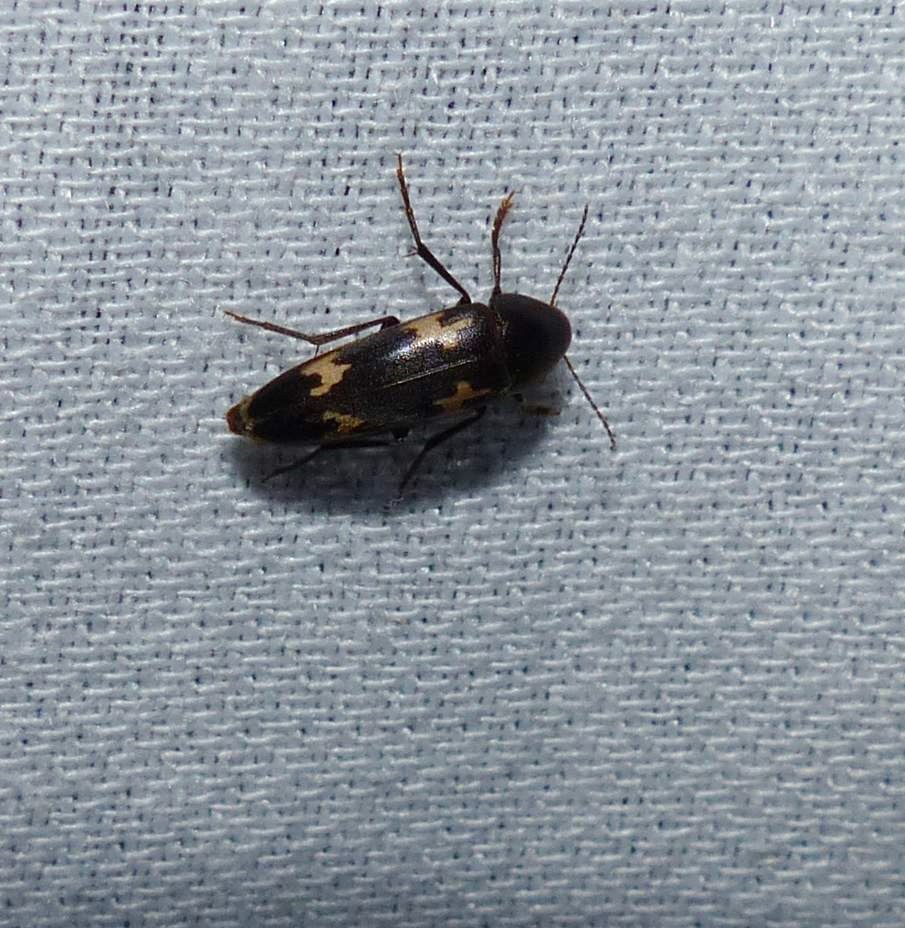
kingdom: Animalia
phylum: Arthropoda
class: Insecta
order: Coleoptera
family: Melandryidae
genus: Dircaea
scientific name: Dircaea liturata
